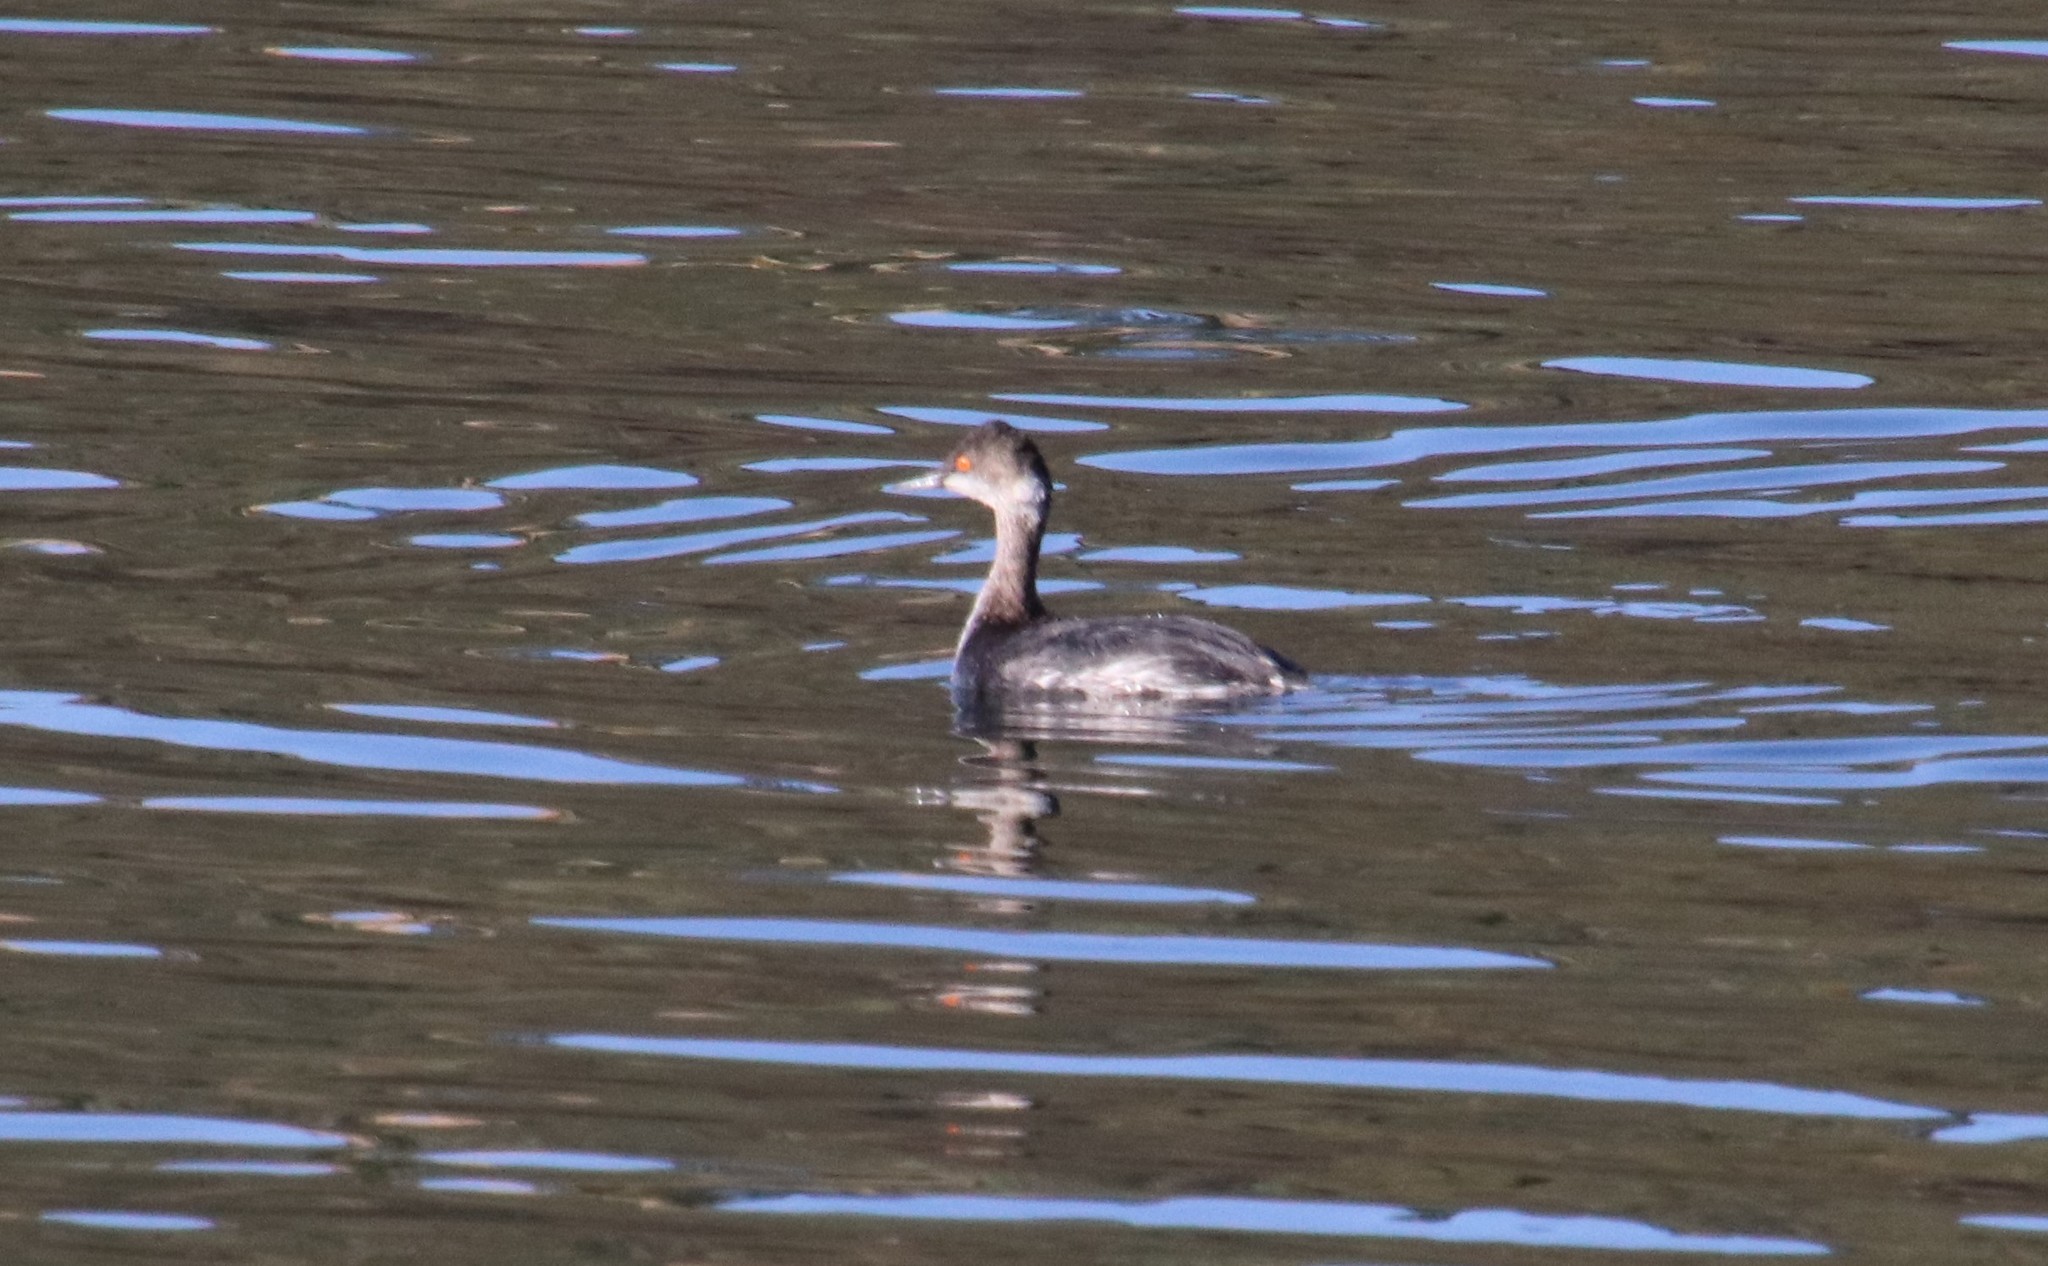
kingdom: Animalia
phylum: Chordata
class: Aves
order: Podicipediformes
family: Podicipedidae
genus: Podiceps
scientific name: Podiceps nigricollis
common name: Black-necked grebe
